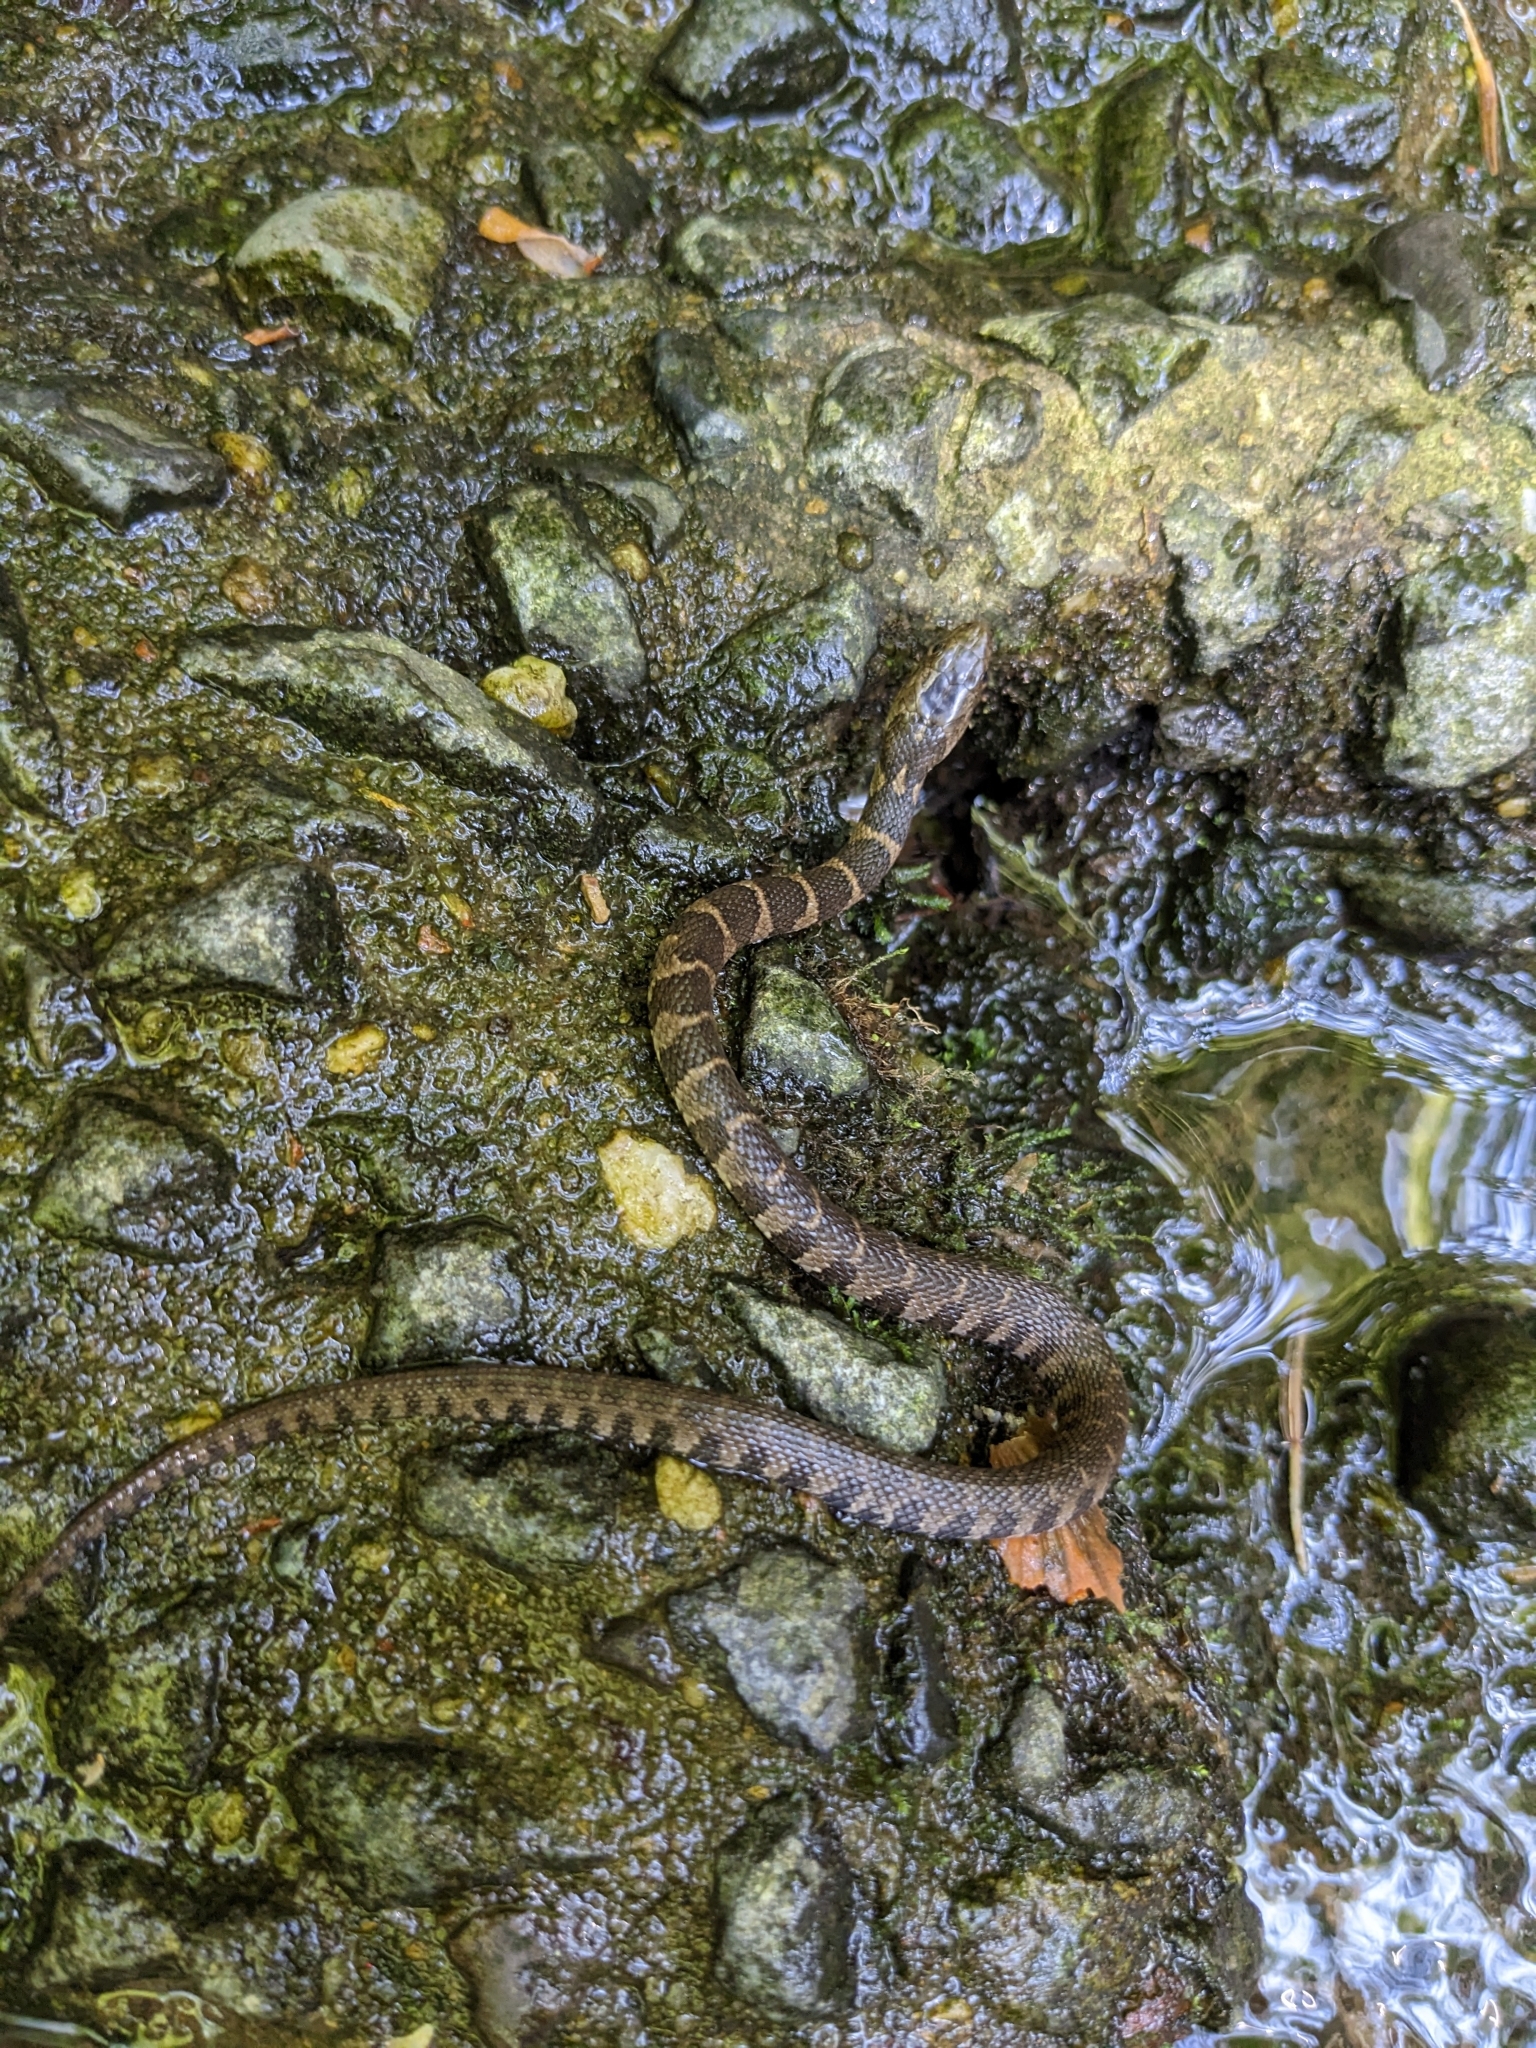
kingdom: Animalia
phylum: Chordata
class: Squamata
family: Colubridae
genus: Nerodia
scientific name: Nerodia sipedon
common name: Northern water snake
